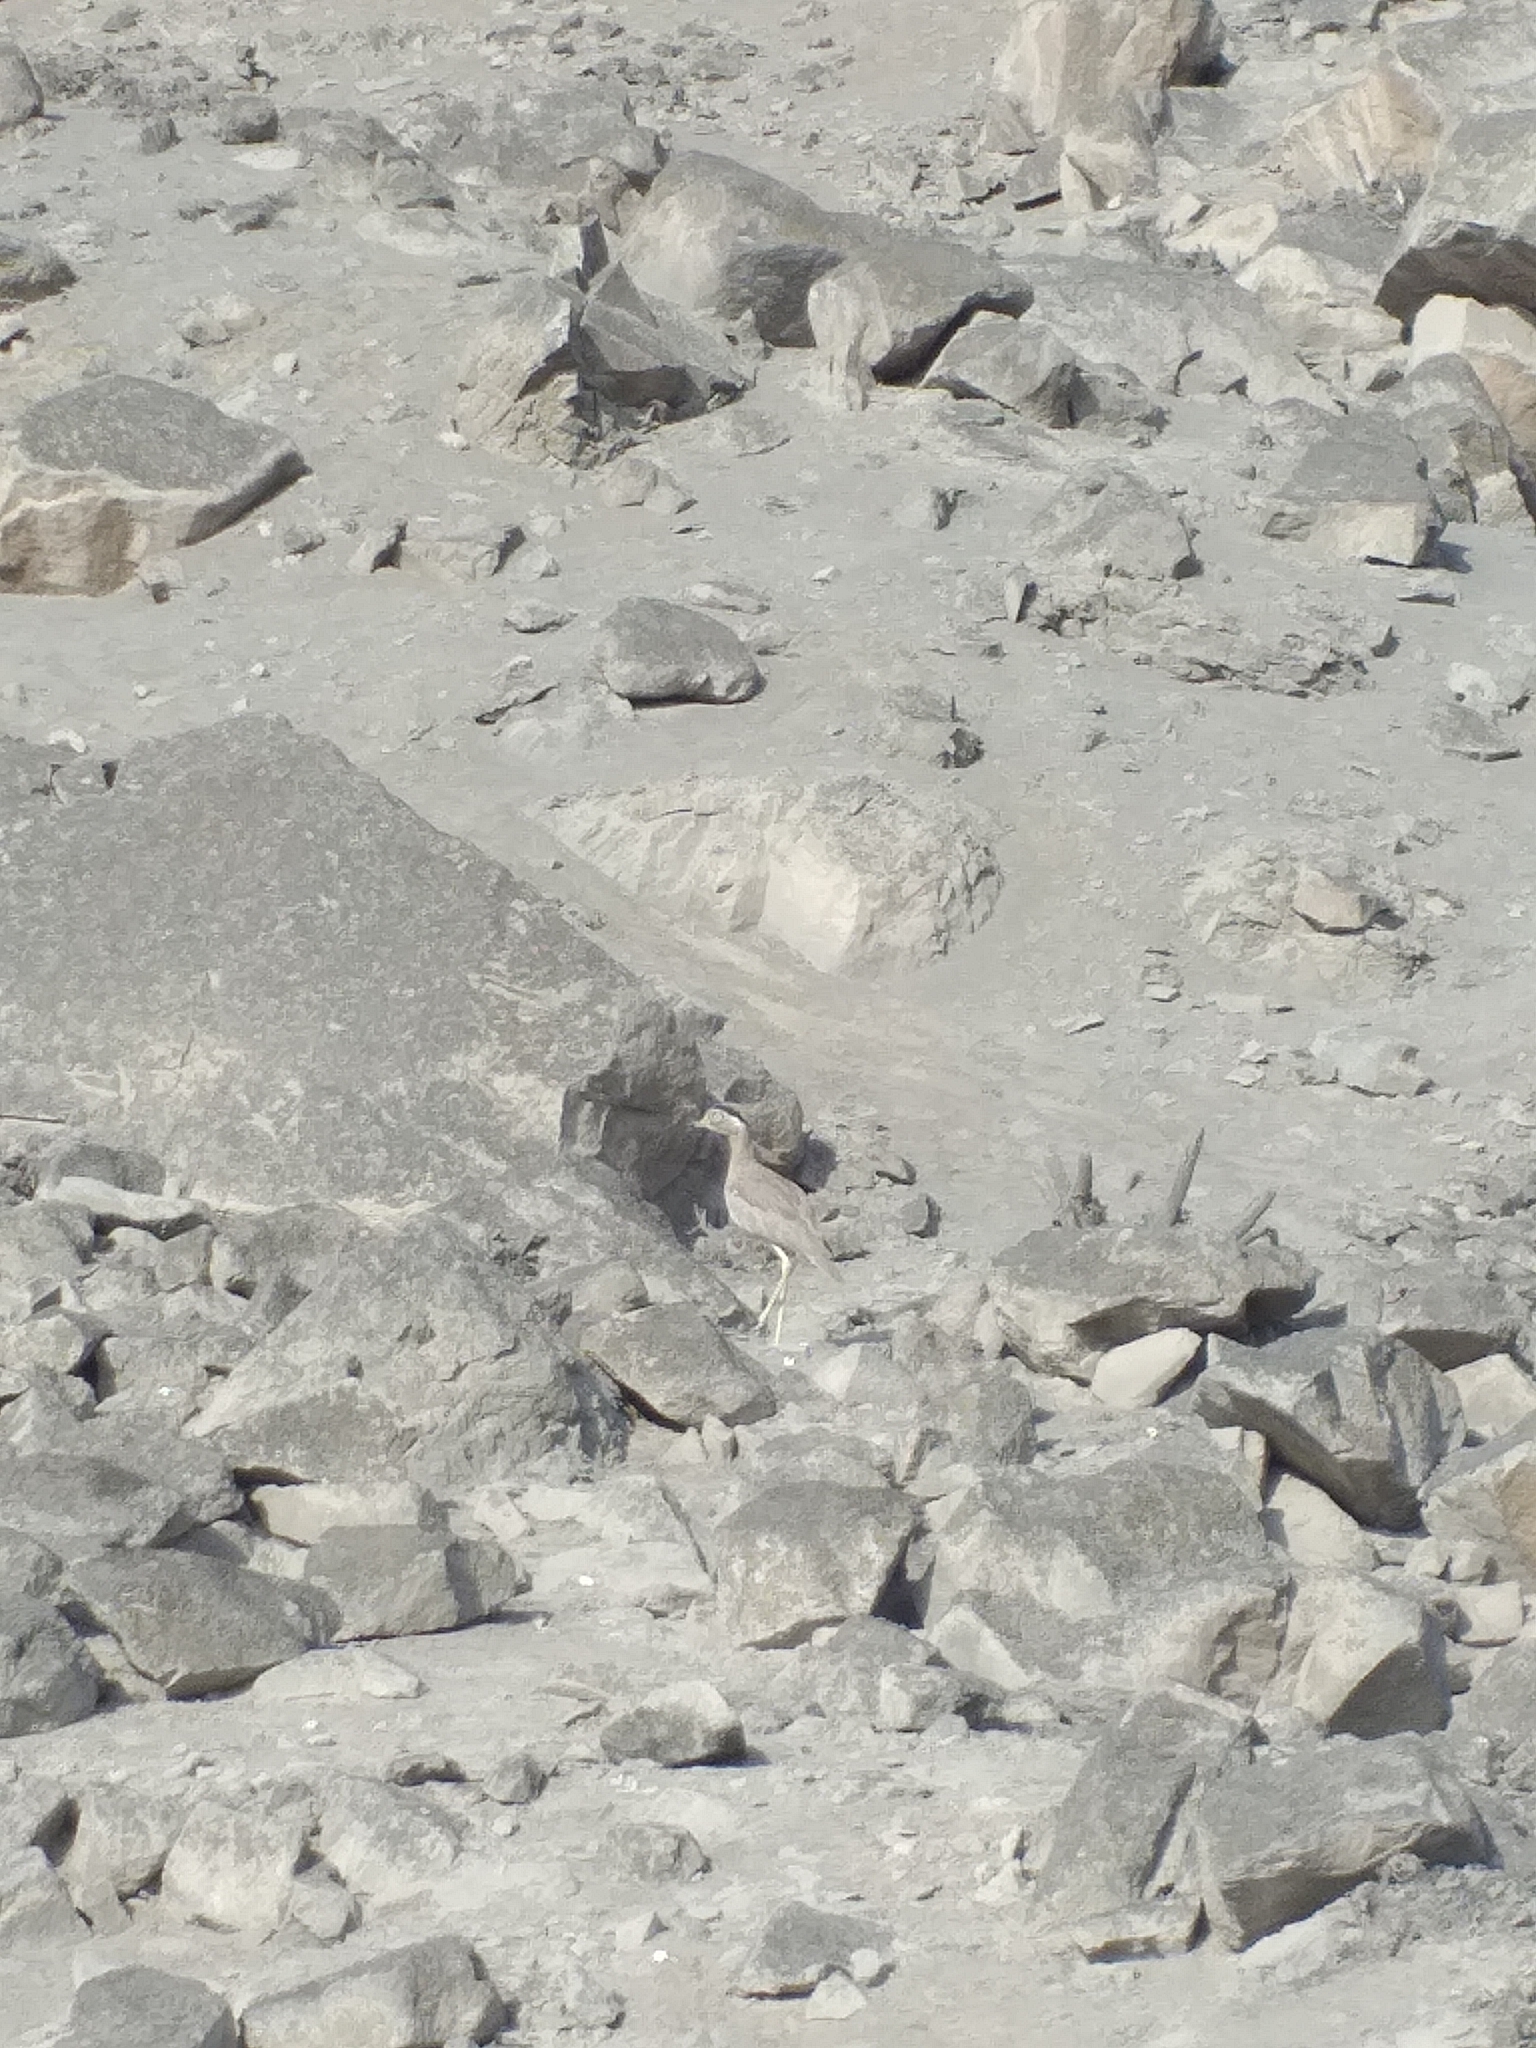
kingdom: Animalia
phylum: Chordata
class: Aves
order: Charadriiformes
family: Burhinidae
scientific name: Burhinidae
